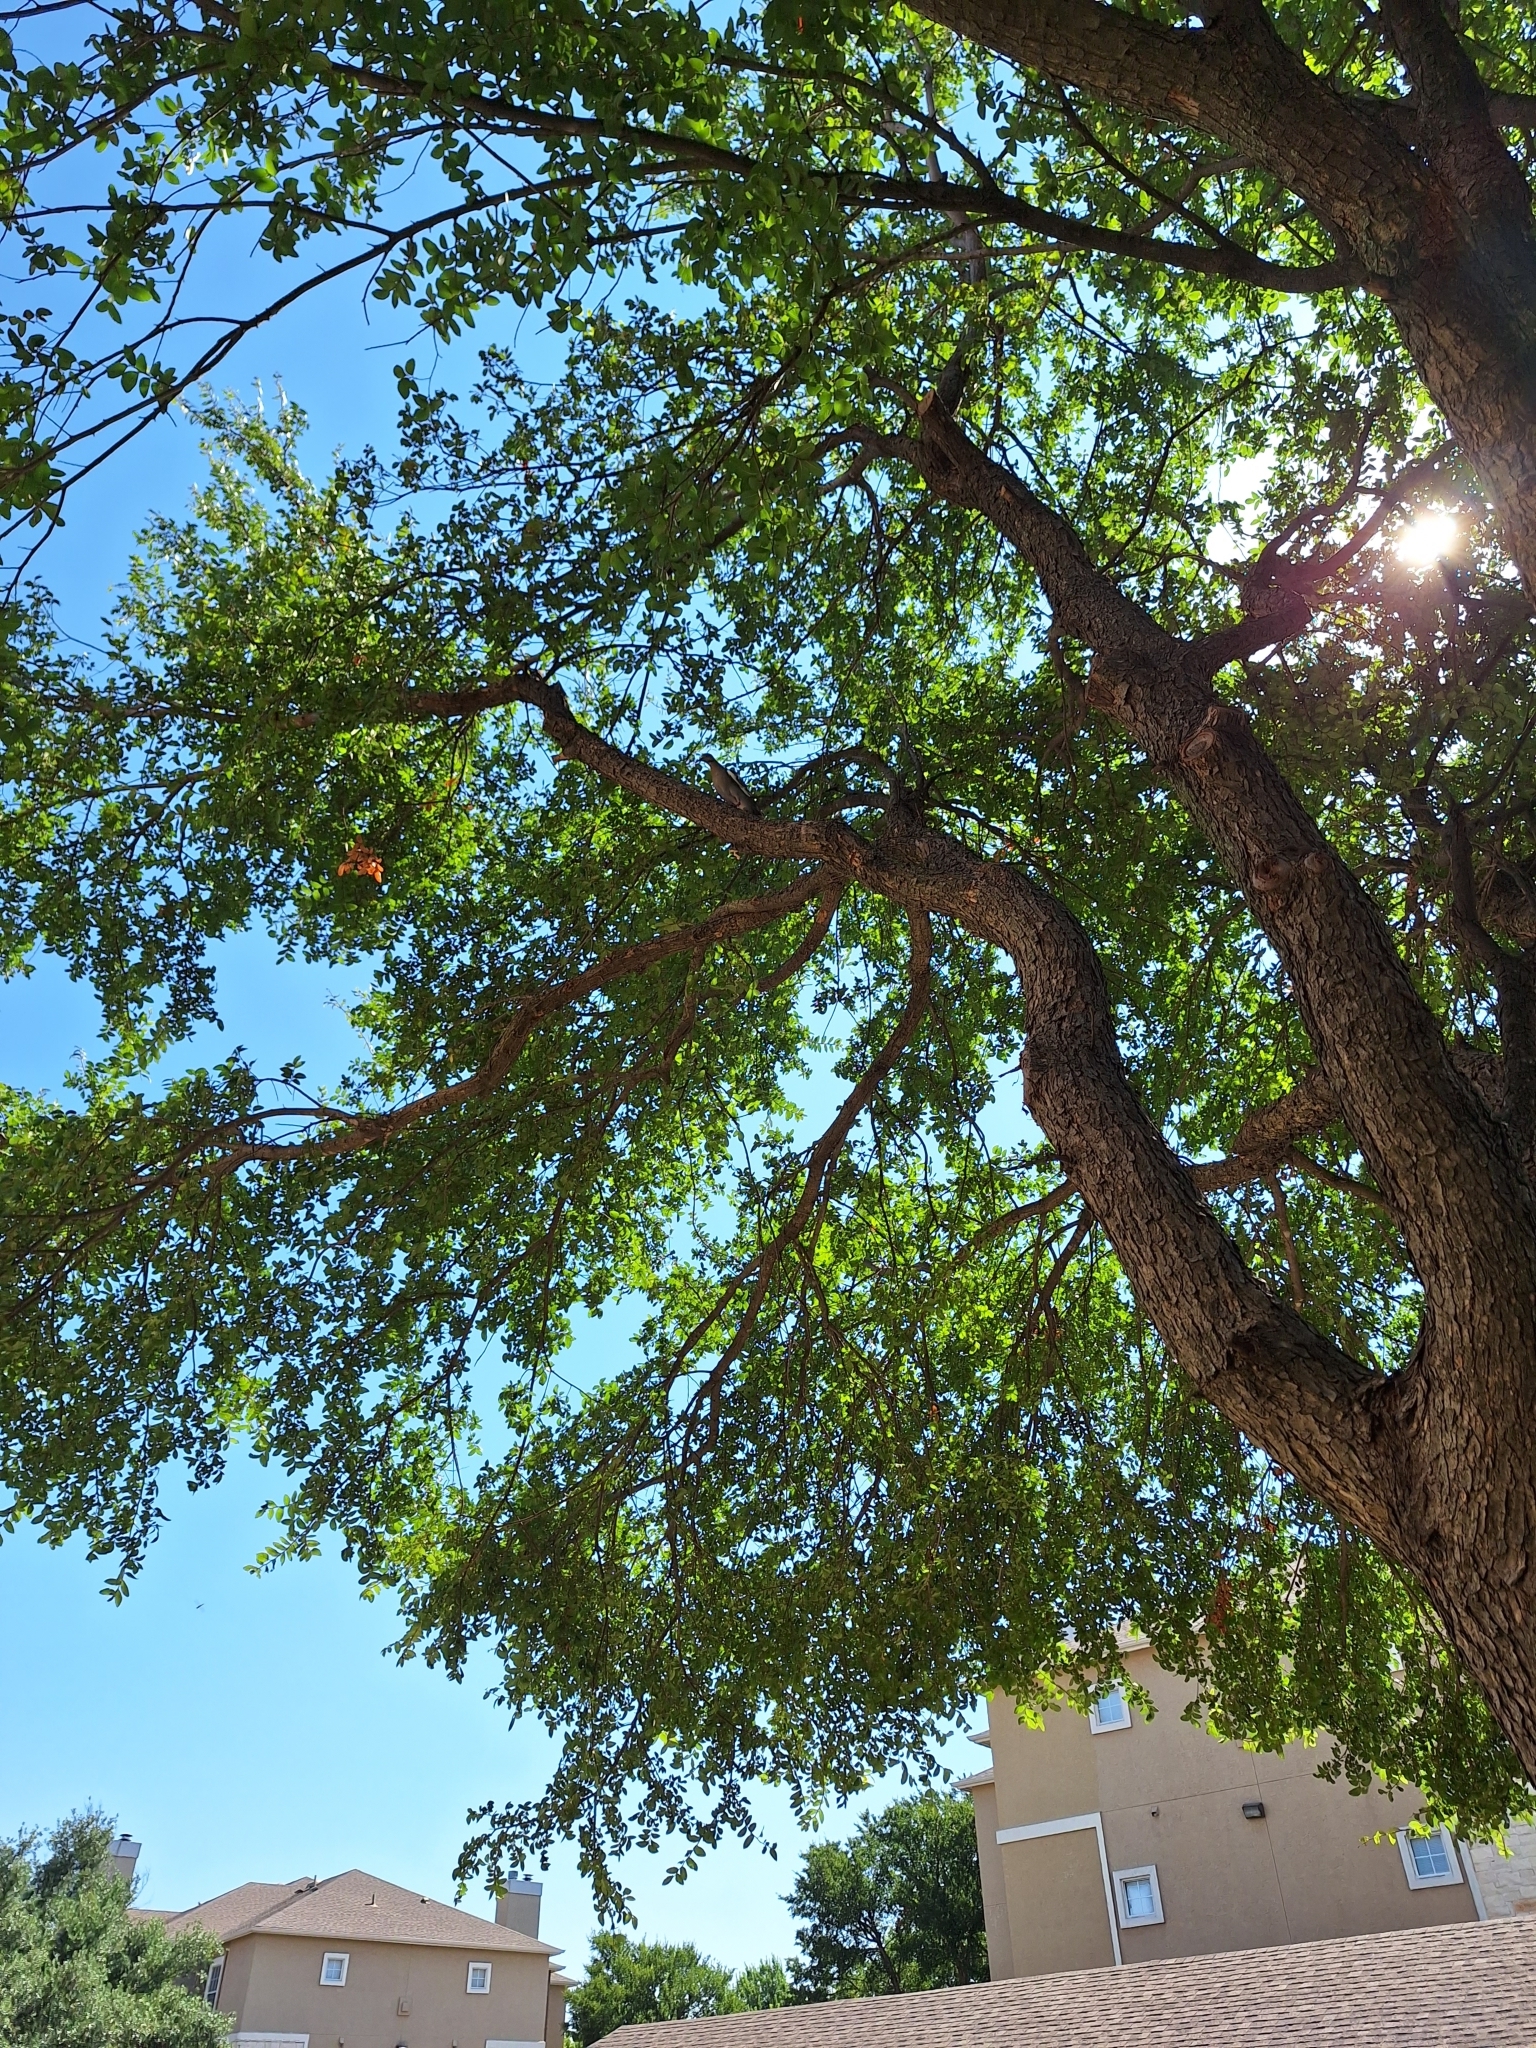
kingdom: Animalia
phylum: Chordata
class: Aves
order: Columbiformes
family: Columbidae
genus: Zenaida
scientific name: Zenaida asiatica
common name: White-winged dove
